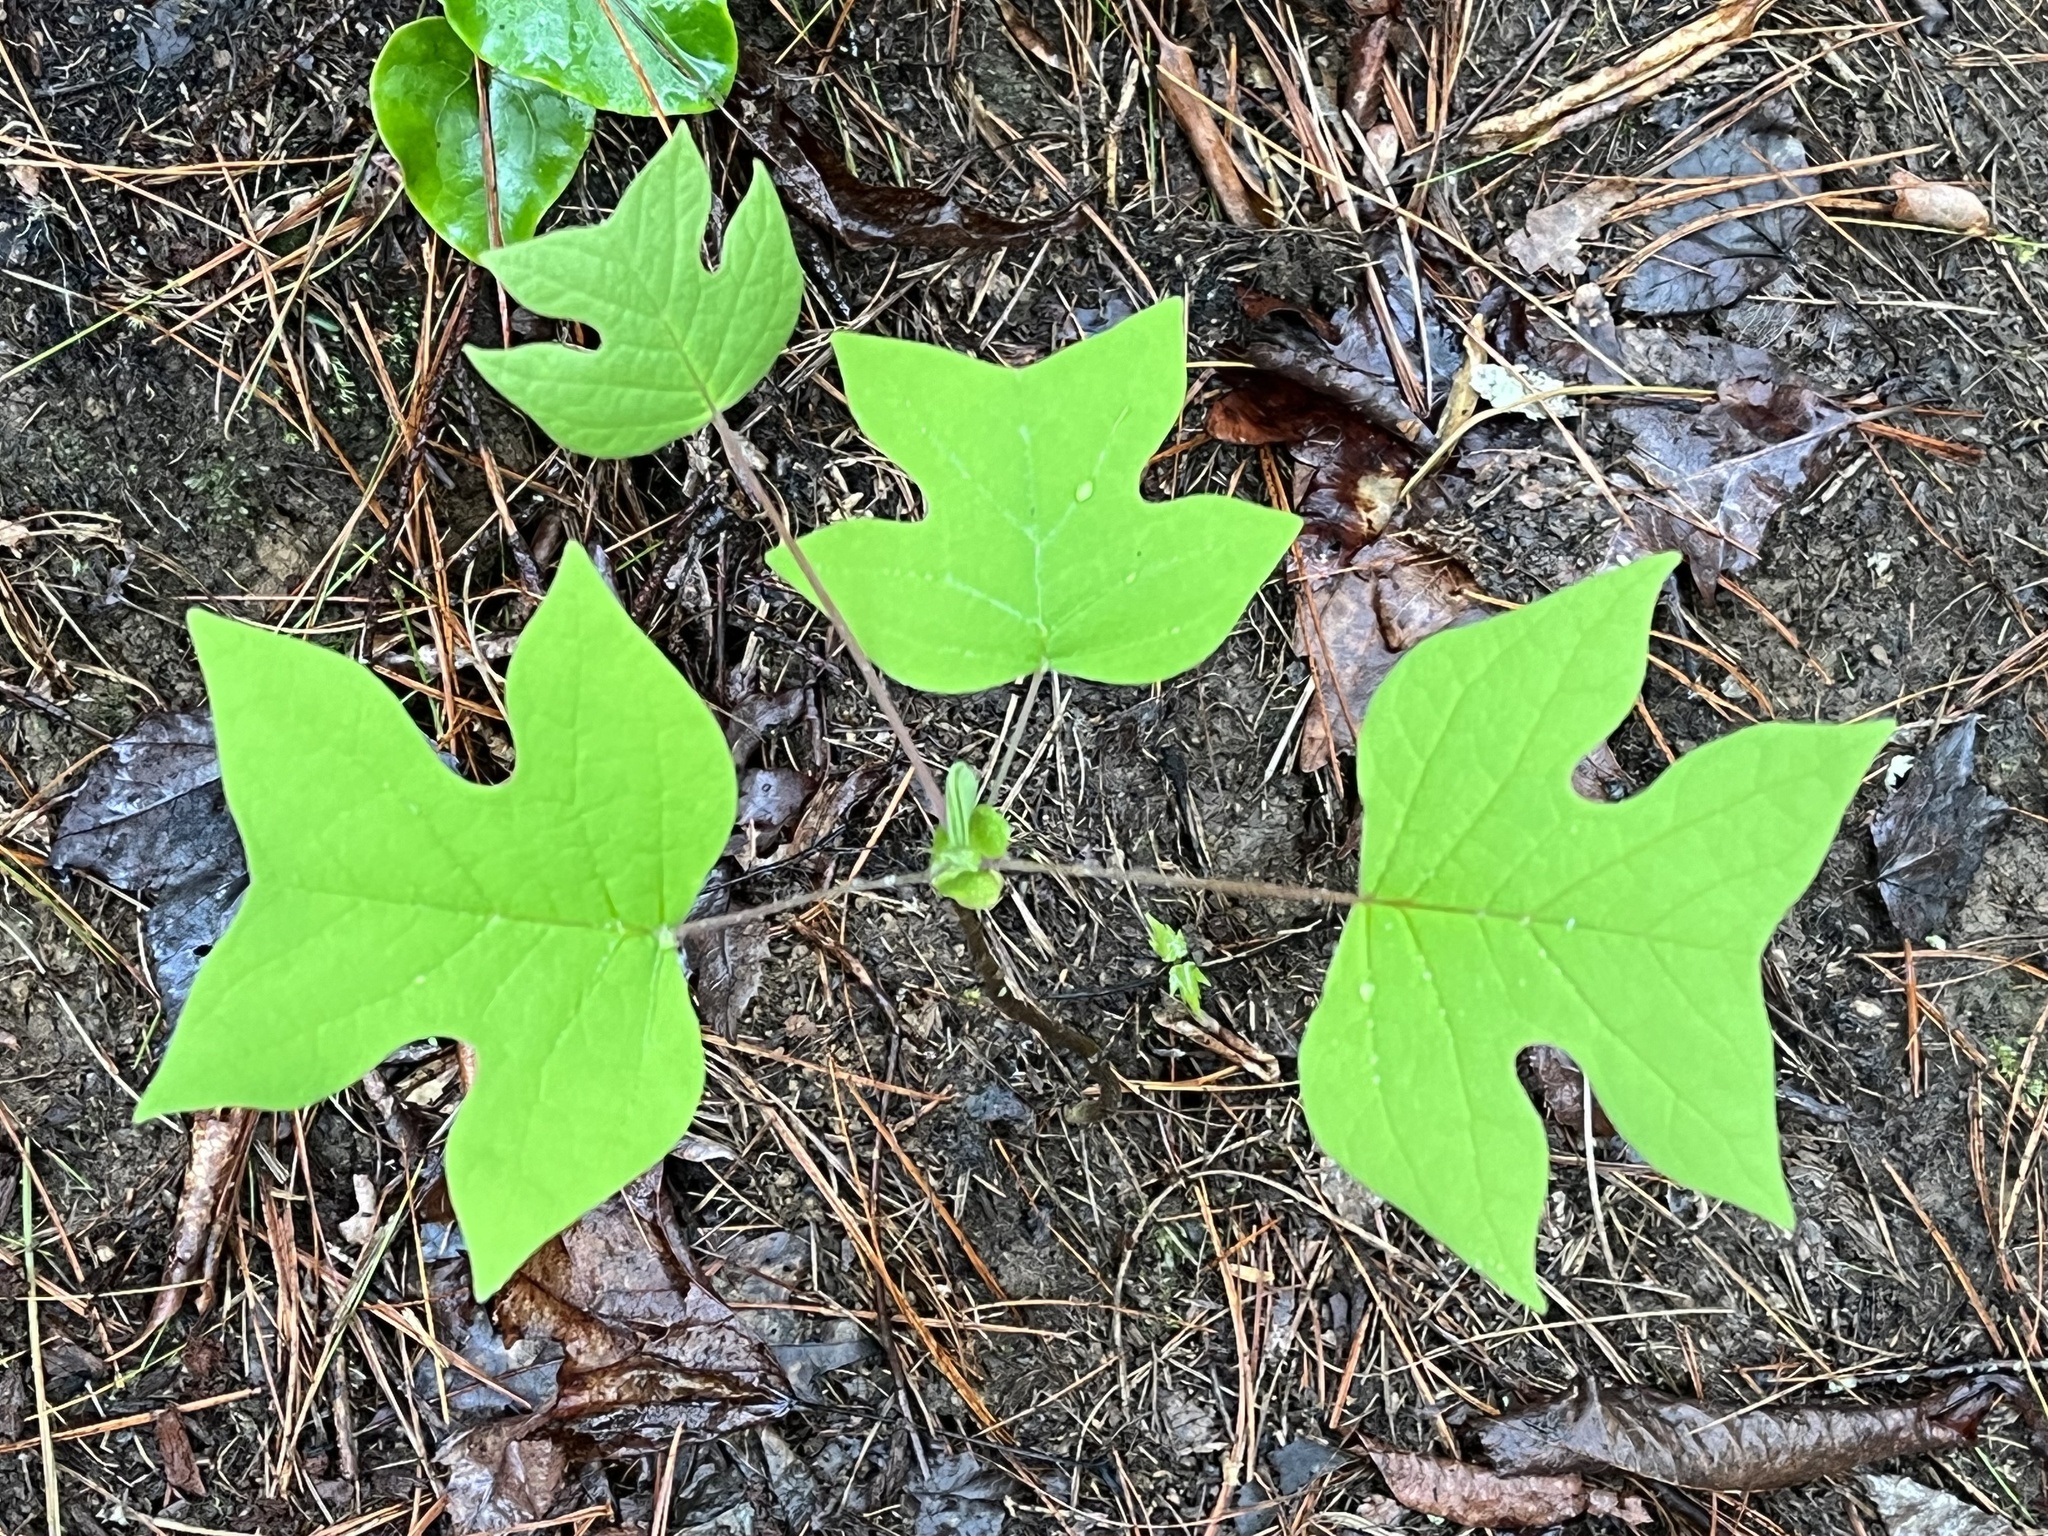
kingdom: Plantae
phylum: Tracheophyta
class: Magnoliopsida
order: Magnoliales
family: Magnoliaceae
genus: Liriodendron
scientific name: Liriodendron tulipifera
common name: Tulip tree
